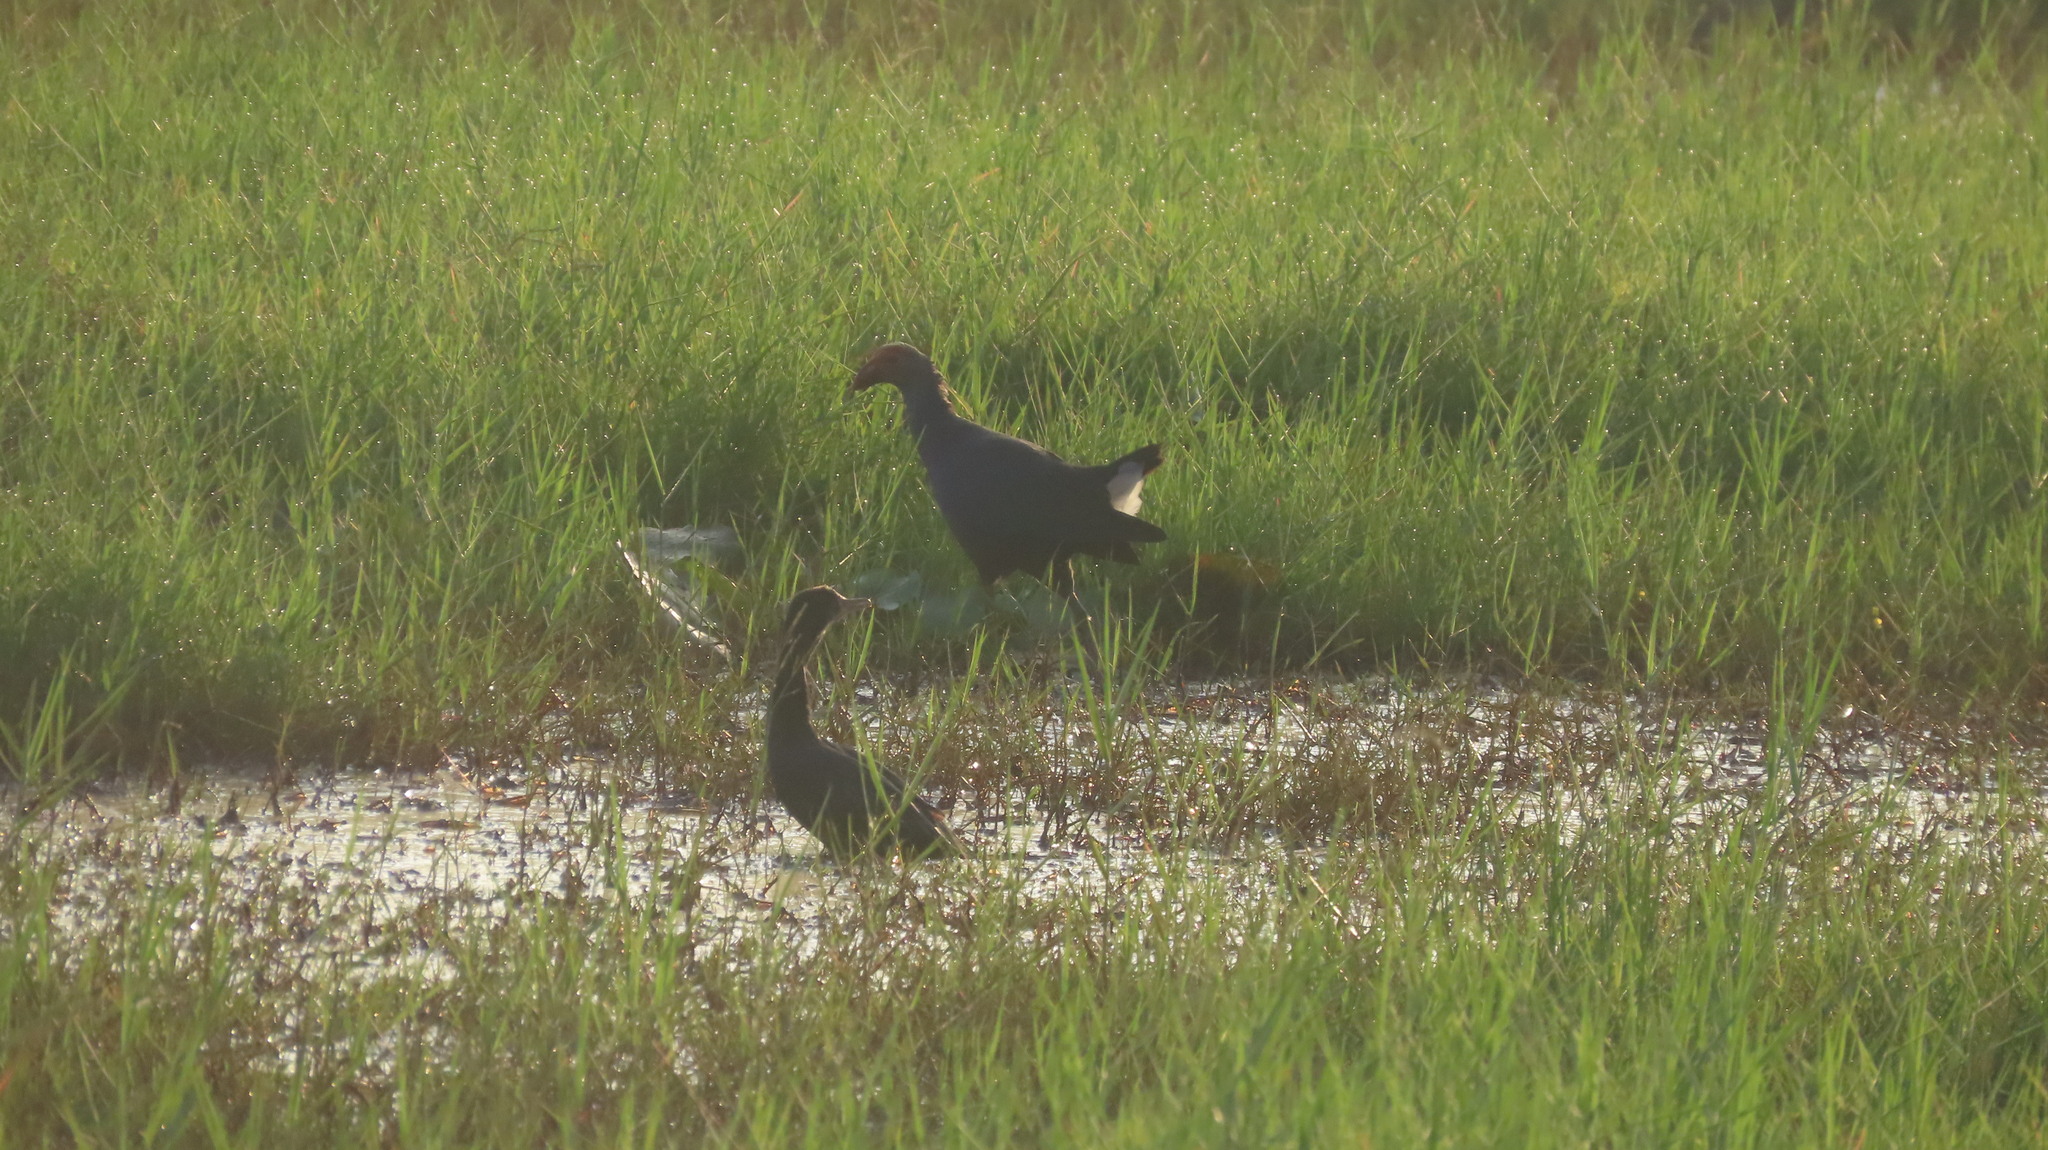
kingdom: Animalia
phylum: Chordata
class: Aves
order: Suliformes
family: Phalacrocoracidae
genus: Microcarbo
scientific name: Microcarbo niger
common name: Little cormorant
